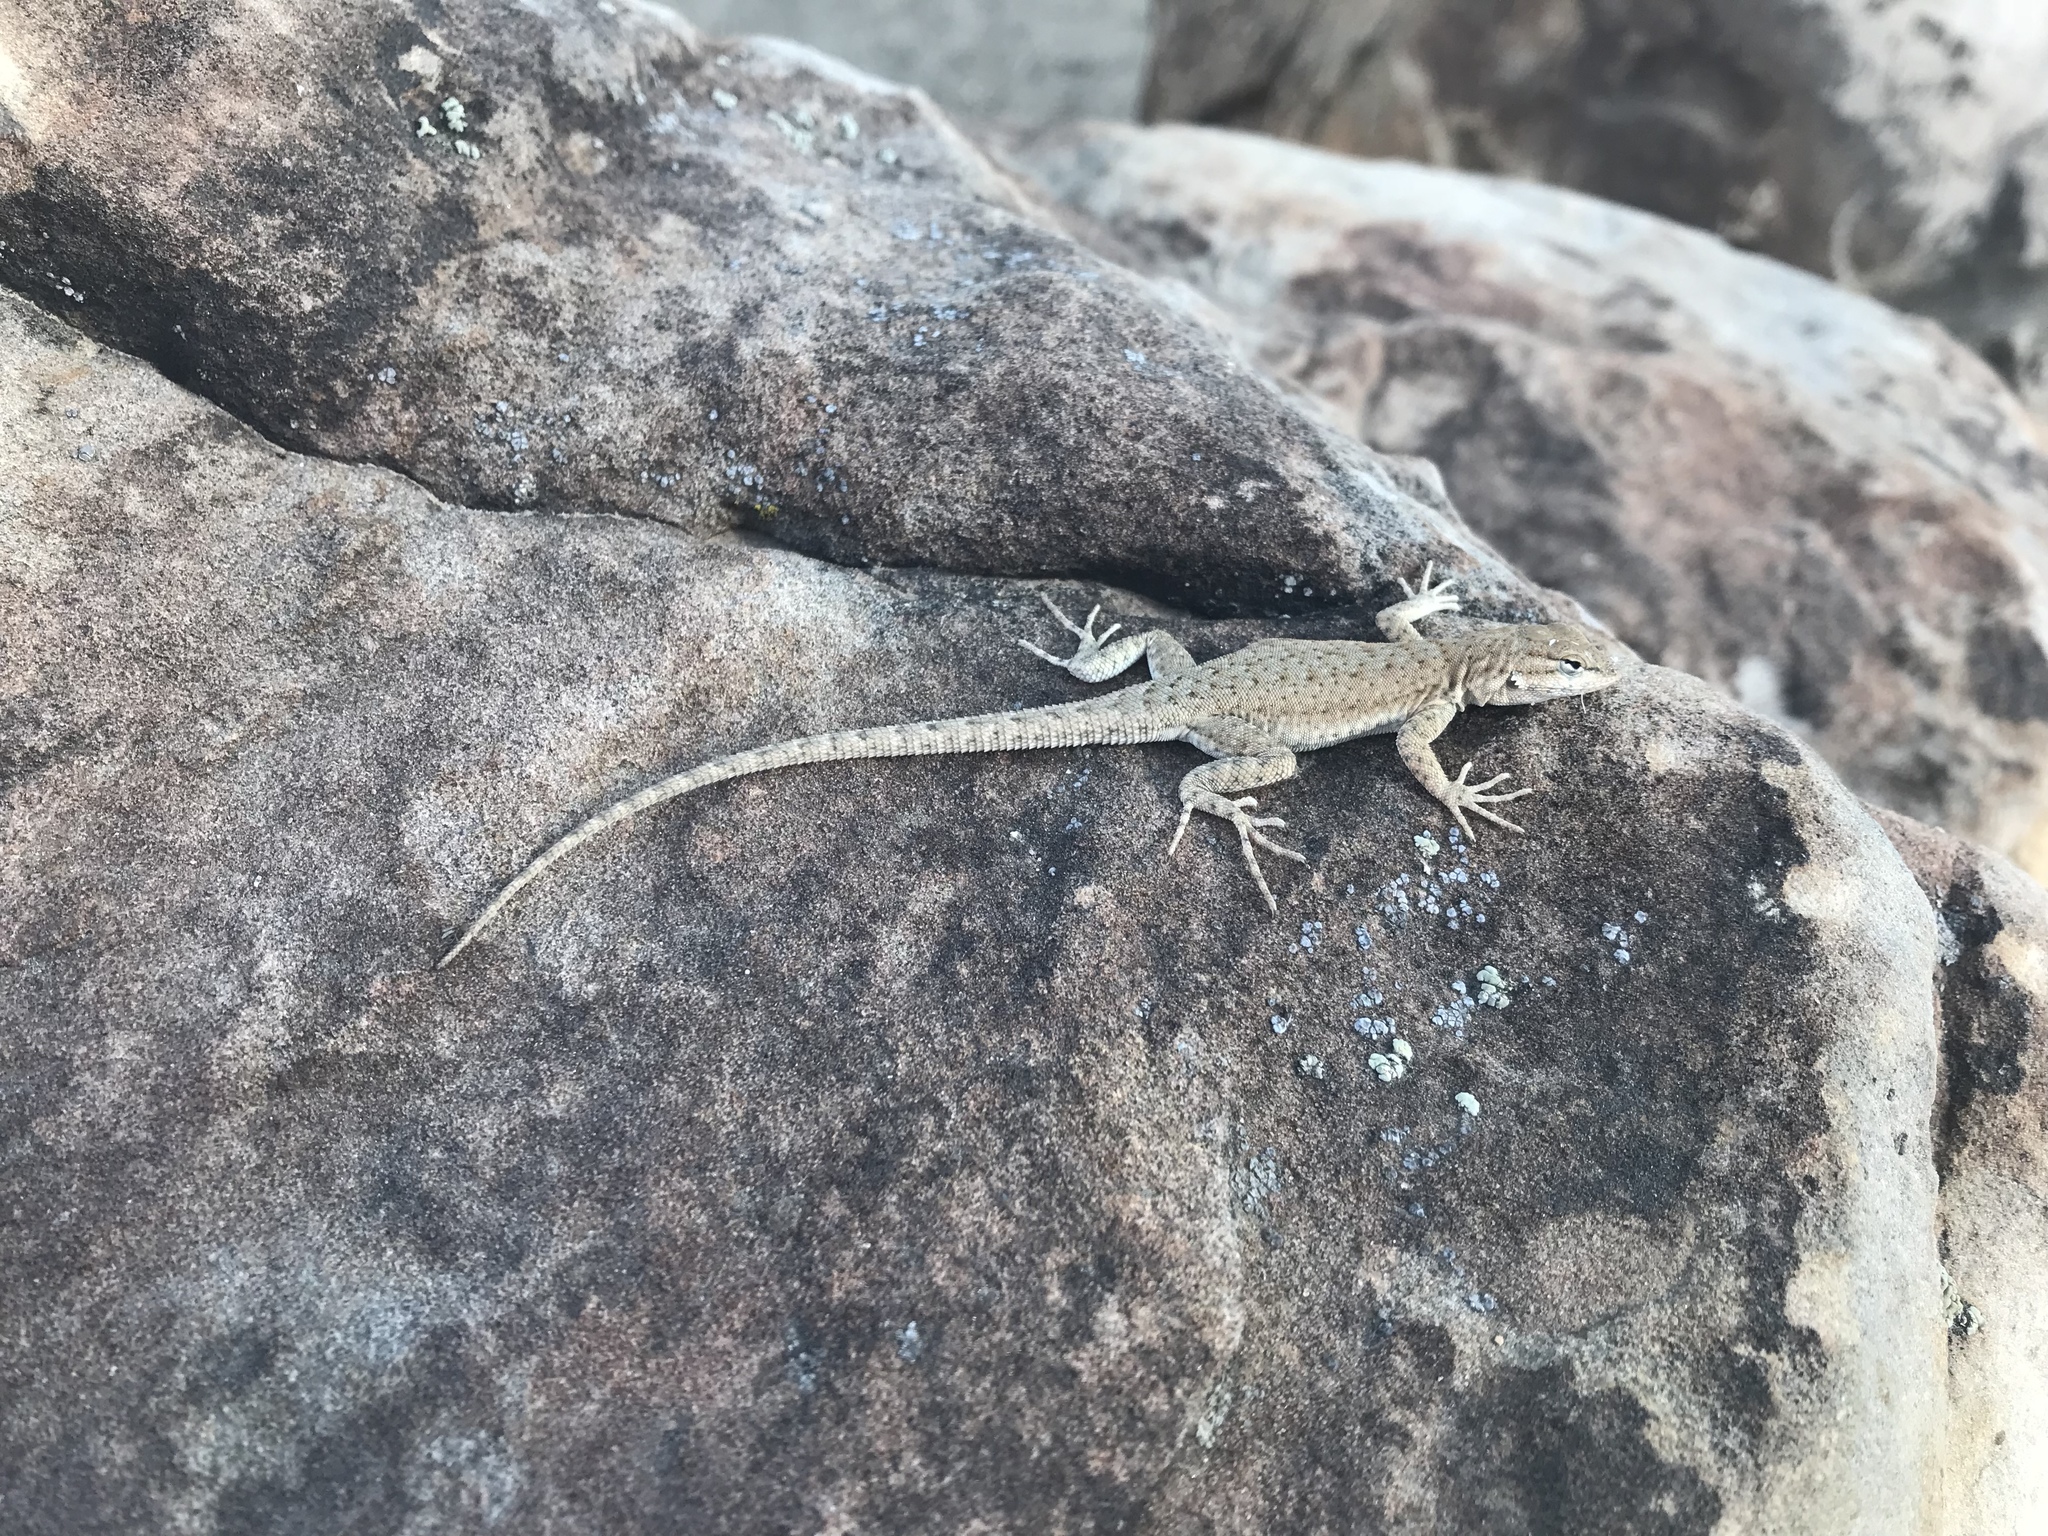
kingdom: Animalia
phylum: Chordata
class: Squamata
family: Phrynosomatidae
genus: Uta
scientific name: Uta stansburiana
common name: Side-blotched lizard
